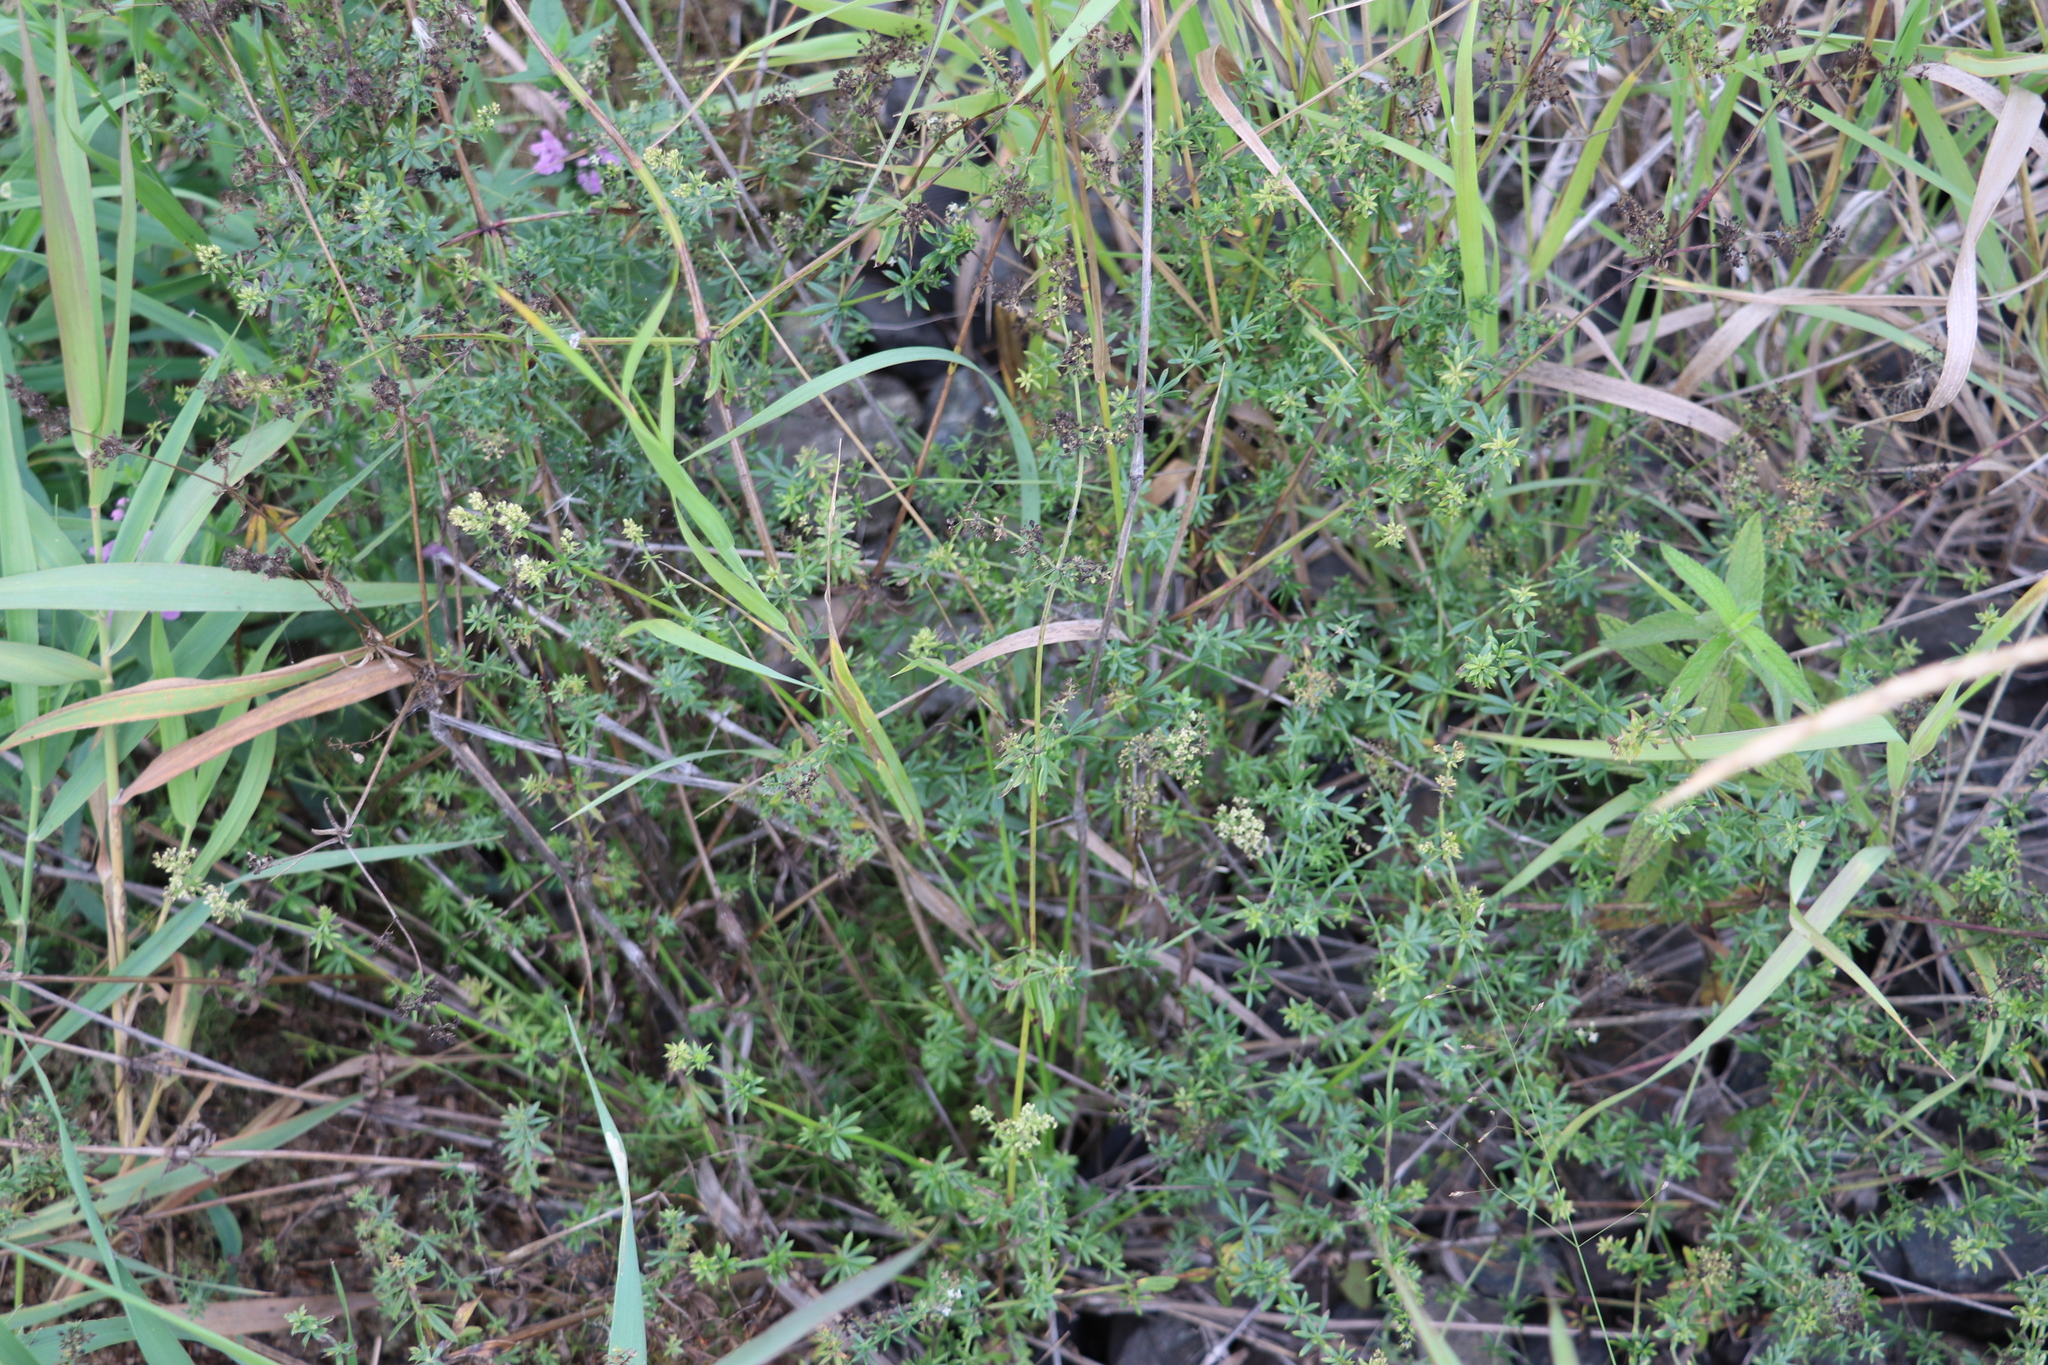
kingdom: Plantae
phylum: Tracheophyta
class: Magnoliopsida
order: Gentianales
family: Rubiaceae
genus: Galium
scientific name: Galium mollugo
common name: Hedge bedstraw
